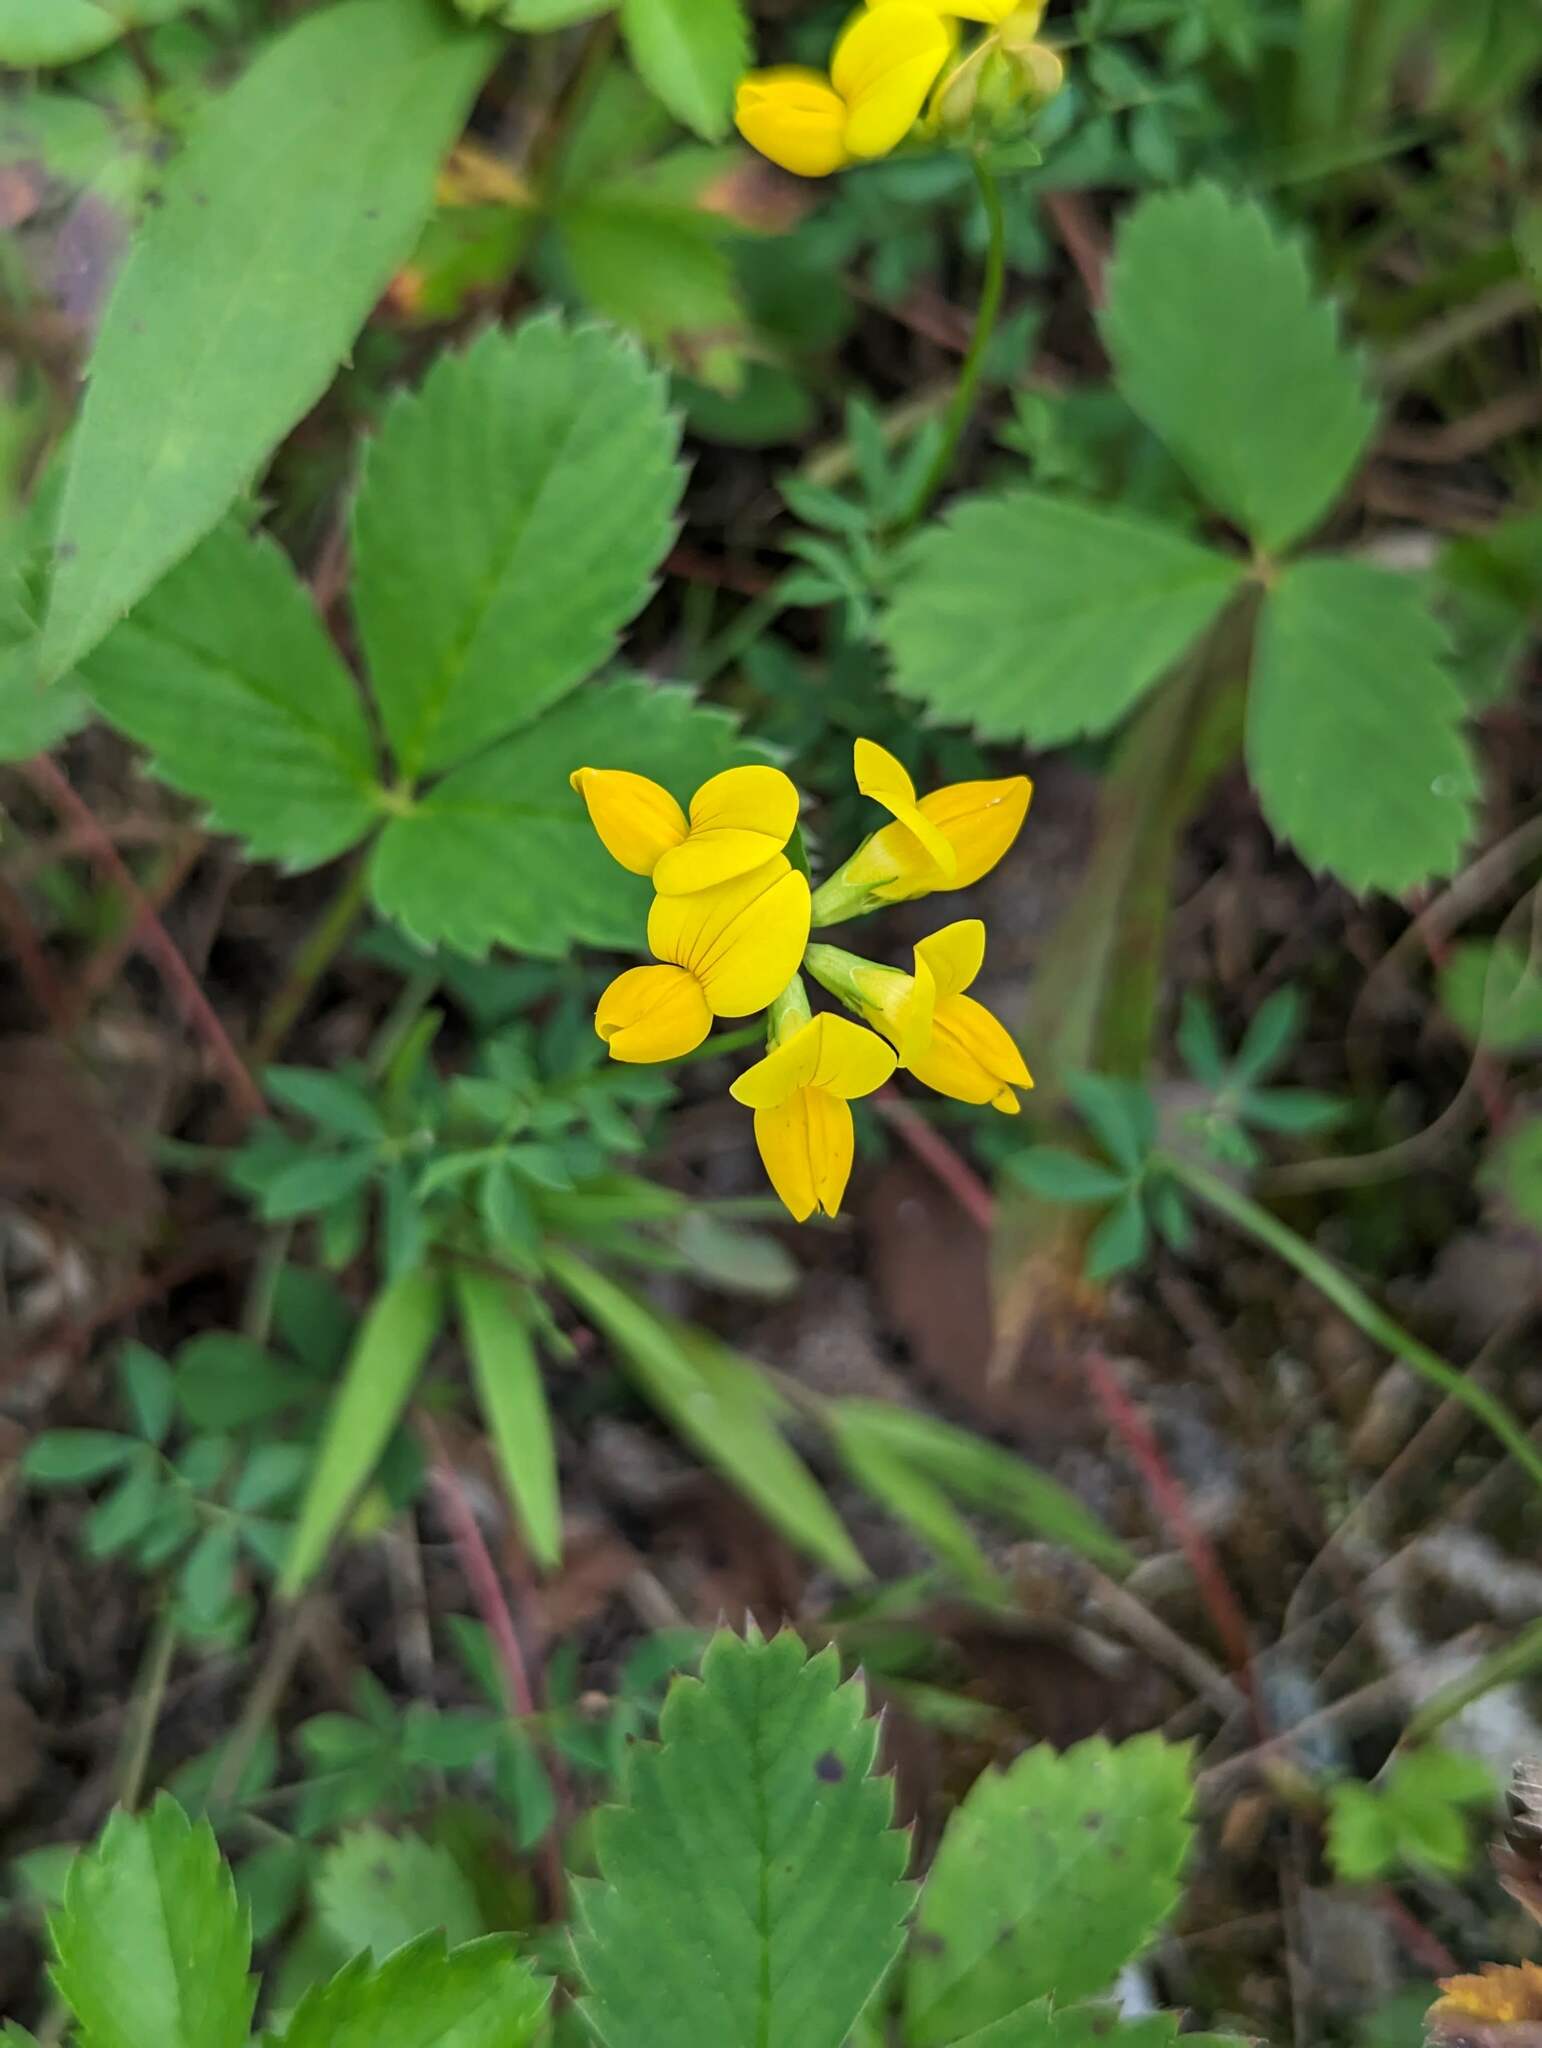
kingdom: Plantae
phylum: Tracheophyta
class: Magnoliopsida
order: Fabales
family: Fabaceae
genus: Lotus
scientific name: Lotus corniculatus
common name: Common bird's-foot-trefoil
